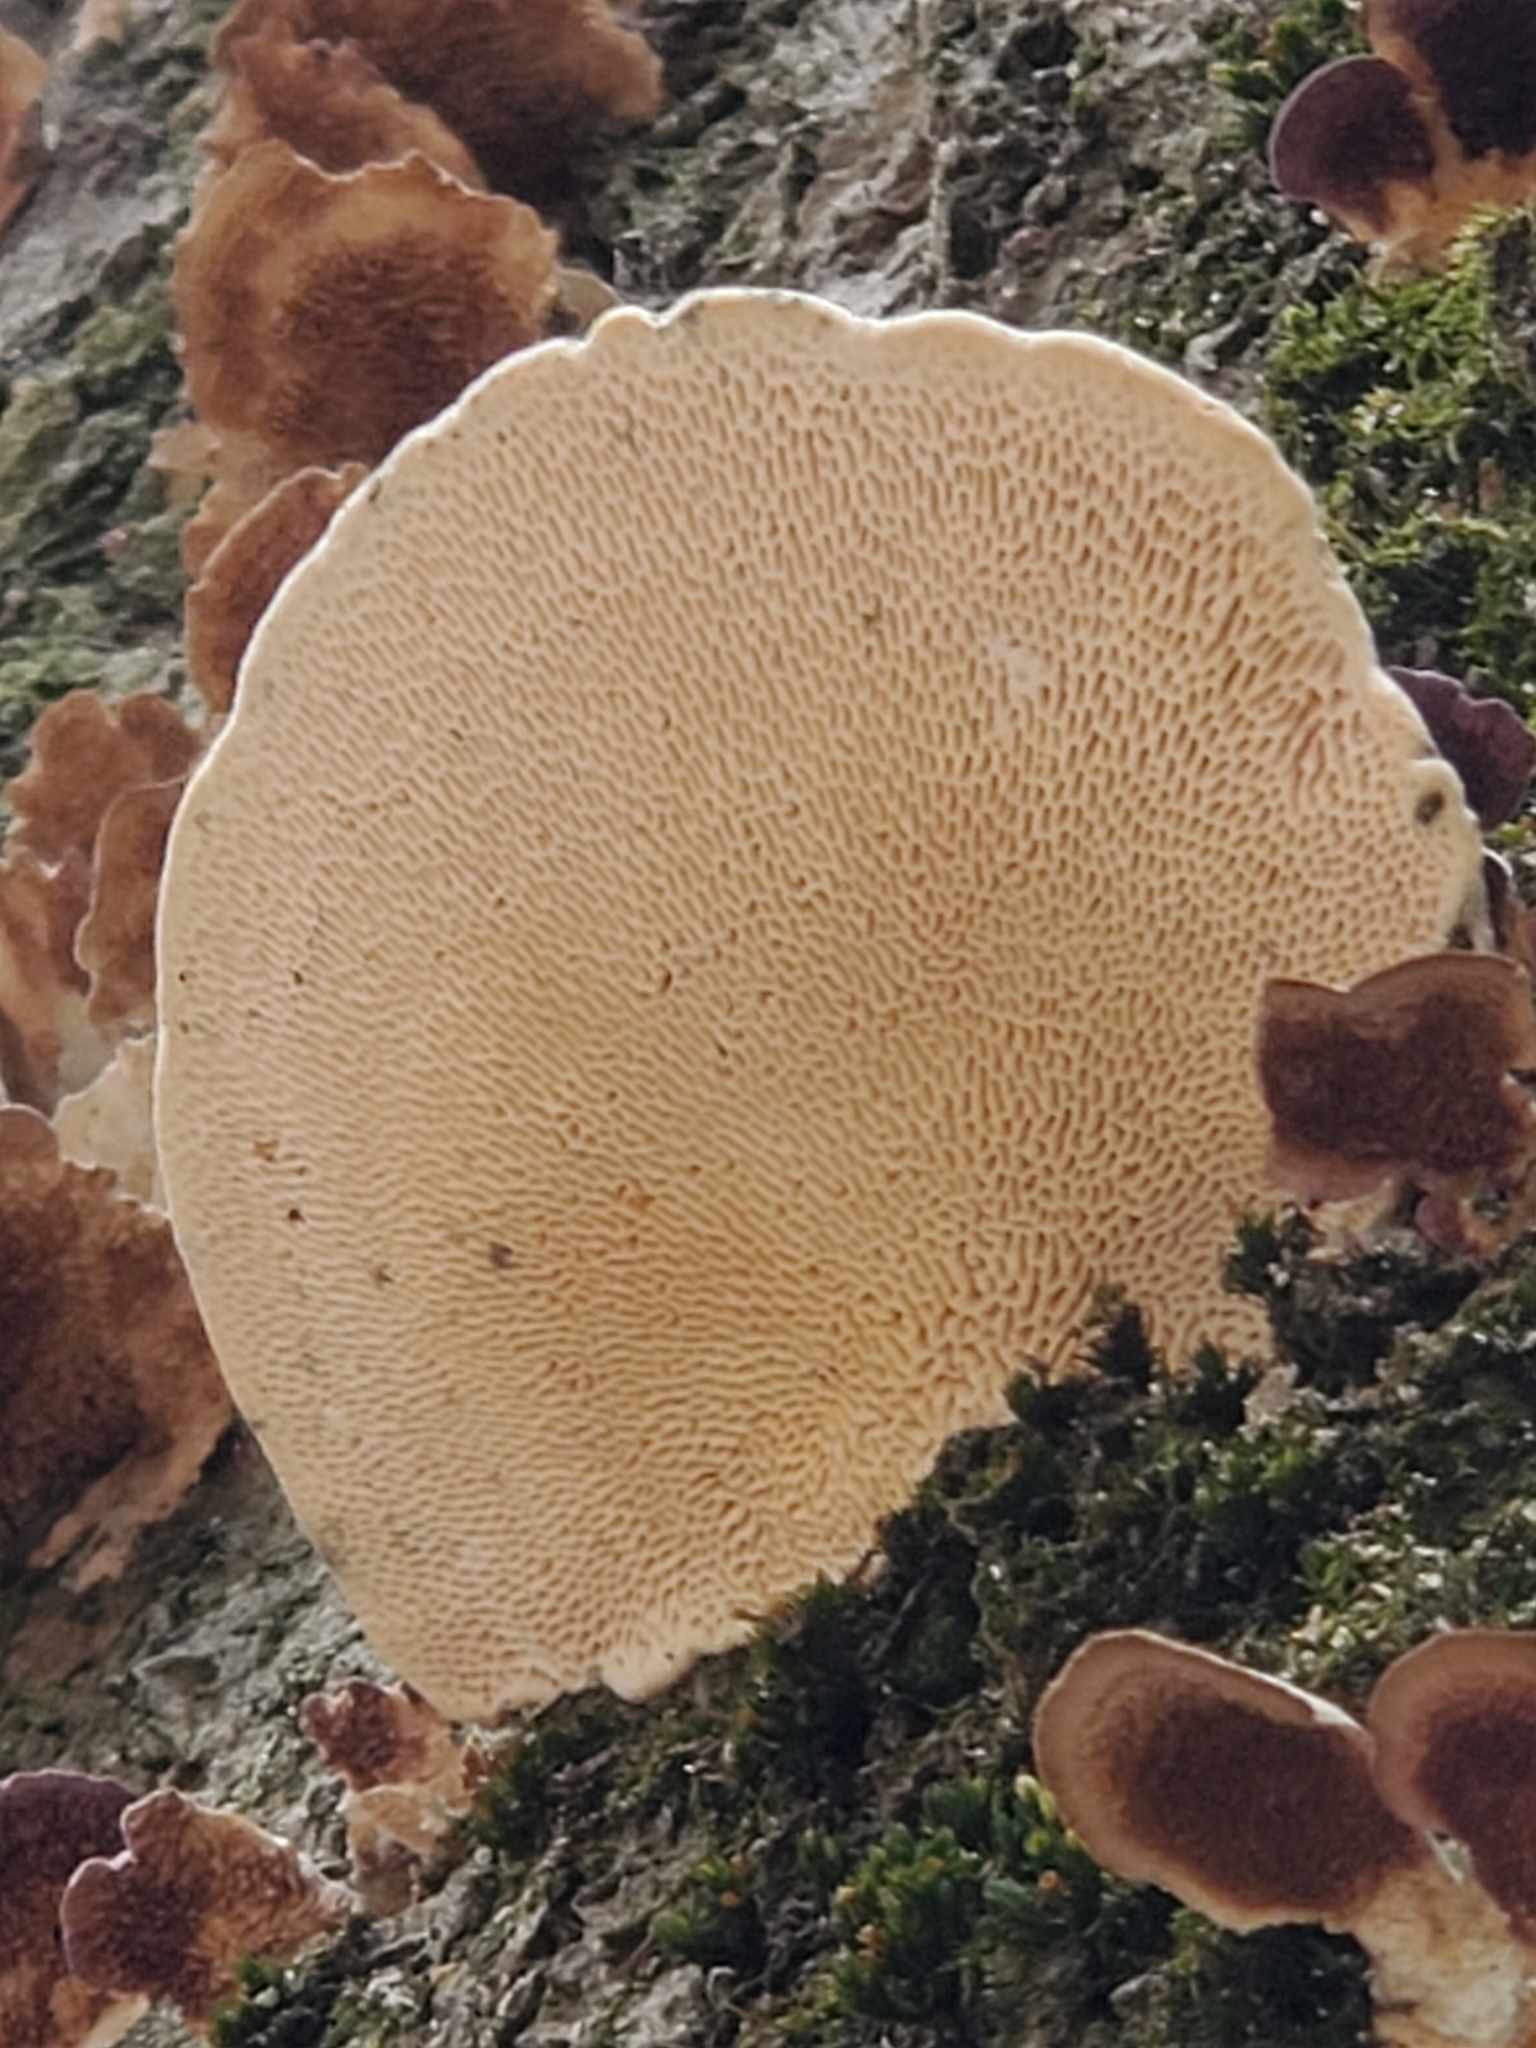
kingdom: Fungi
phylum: Basidiomycota
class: Agaricomycetes
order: Polyporales
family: Polyporaceae
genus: Trametes
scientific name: Trametes gibbosa
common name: Lumpy bracket
